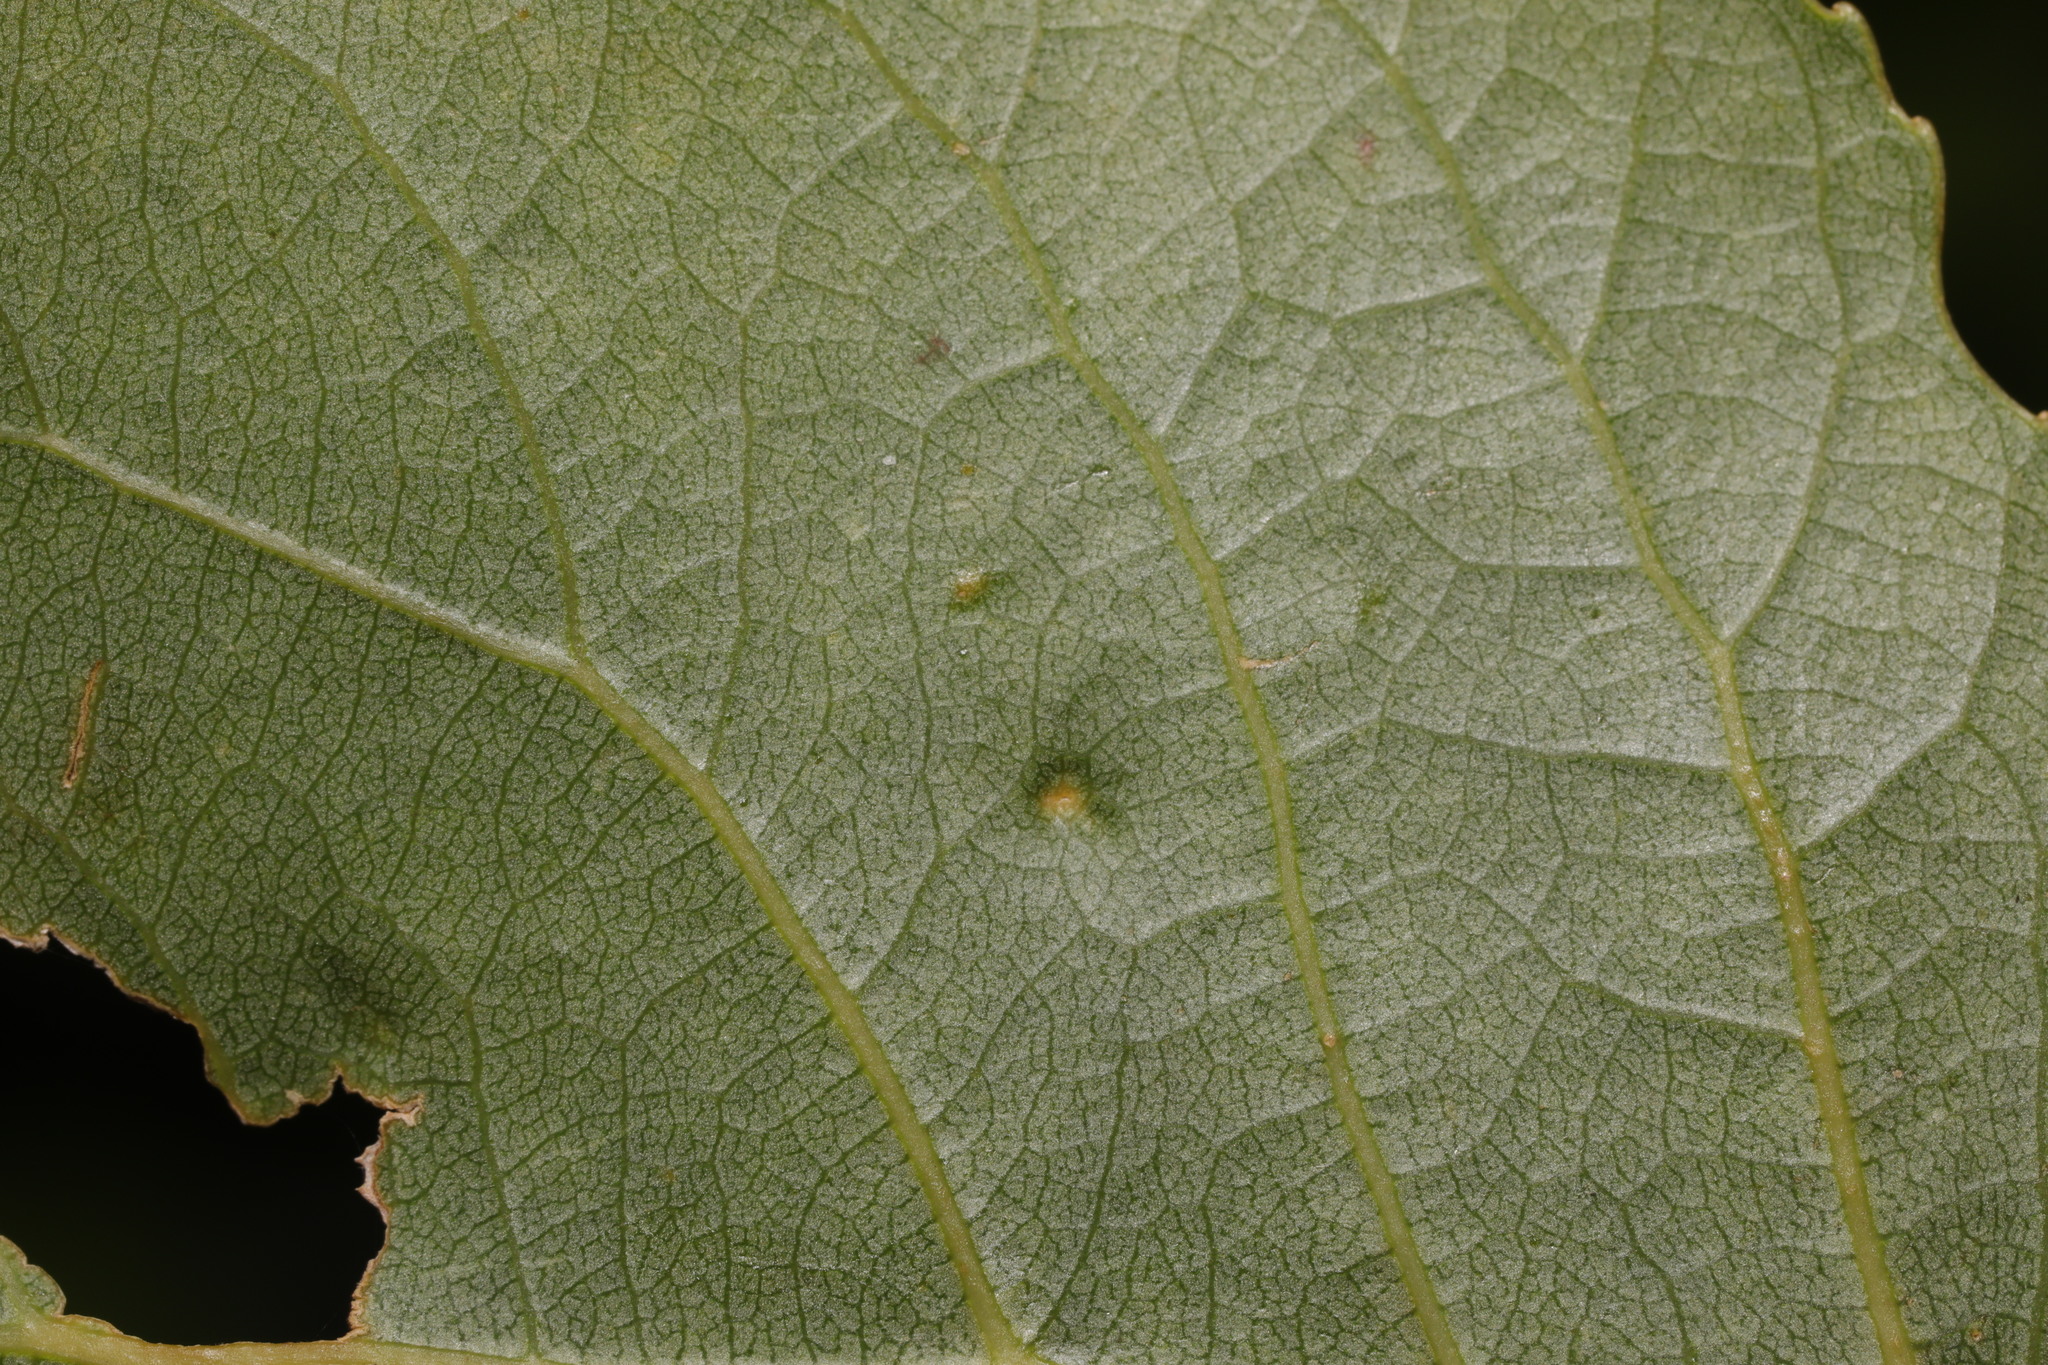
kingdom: Animalia
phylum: Arthropoda
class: Arachnida
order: Trombidiformes
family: Eriophyidae
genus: Phyllocoptes
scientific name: Phyllocoptes populi
